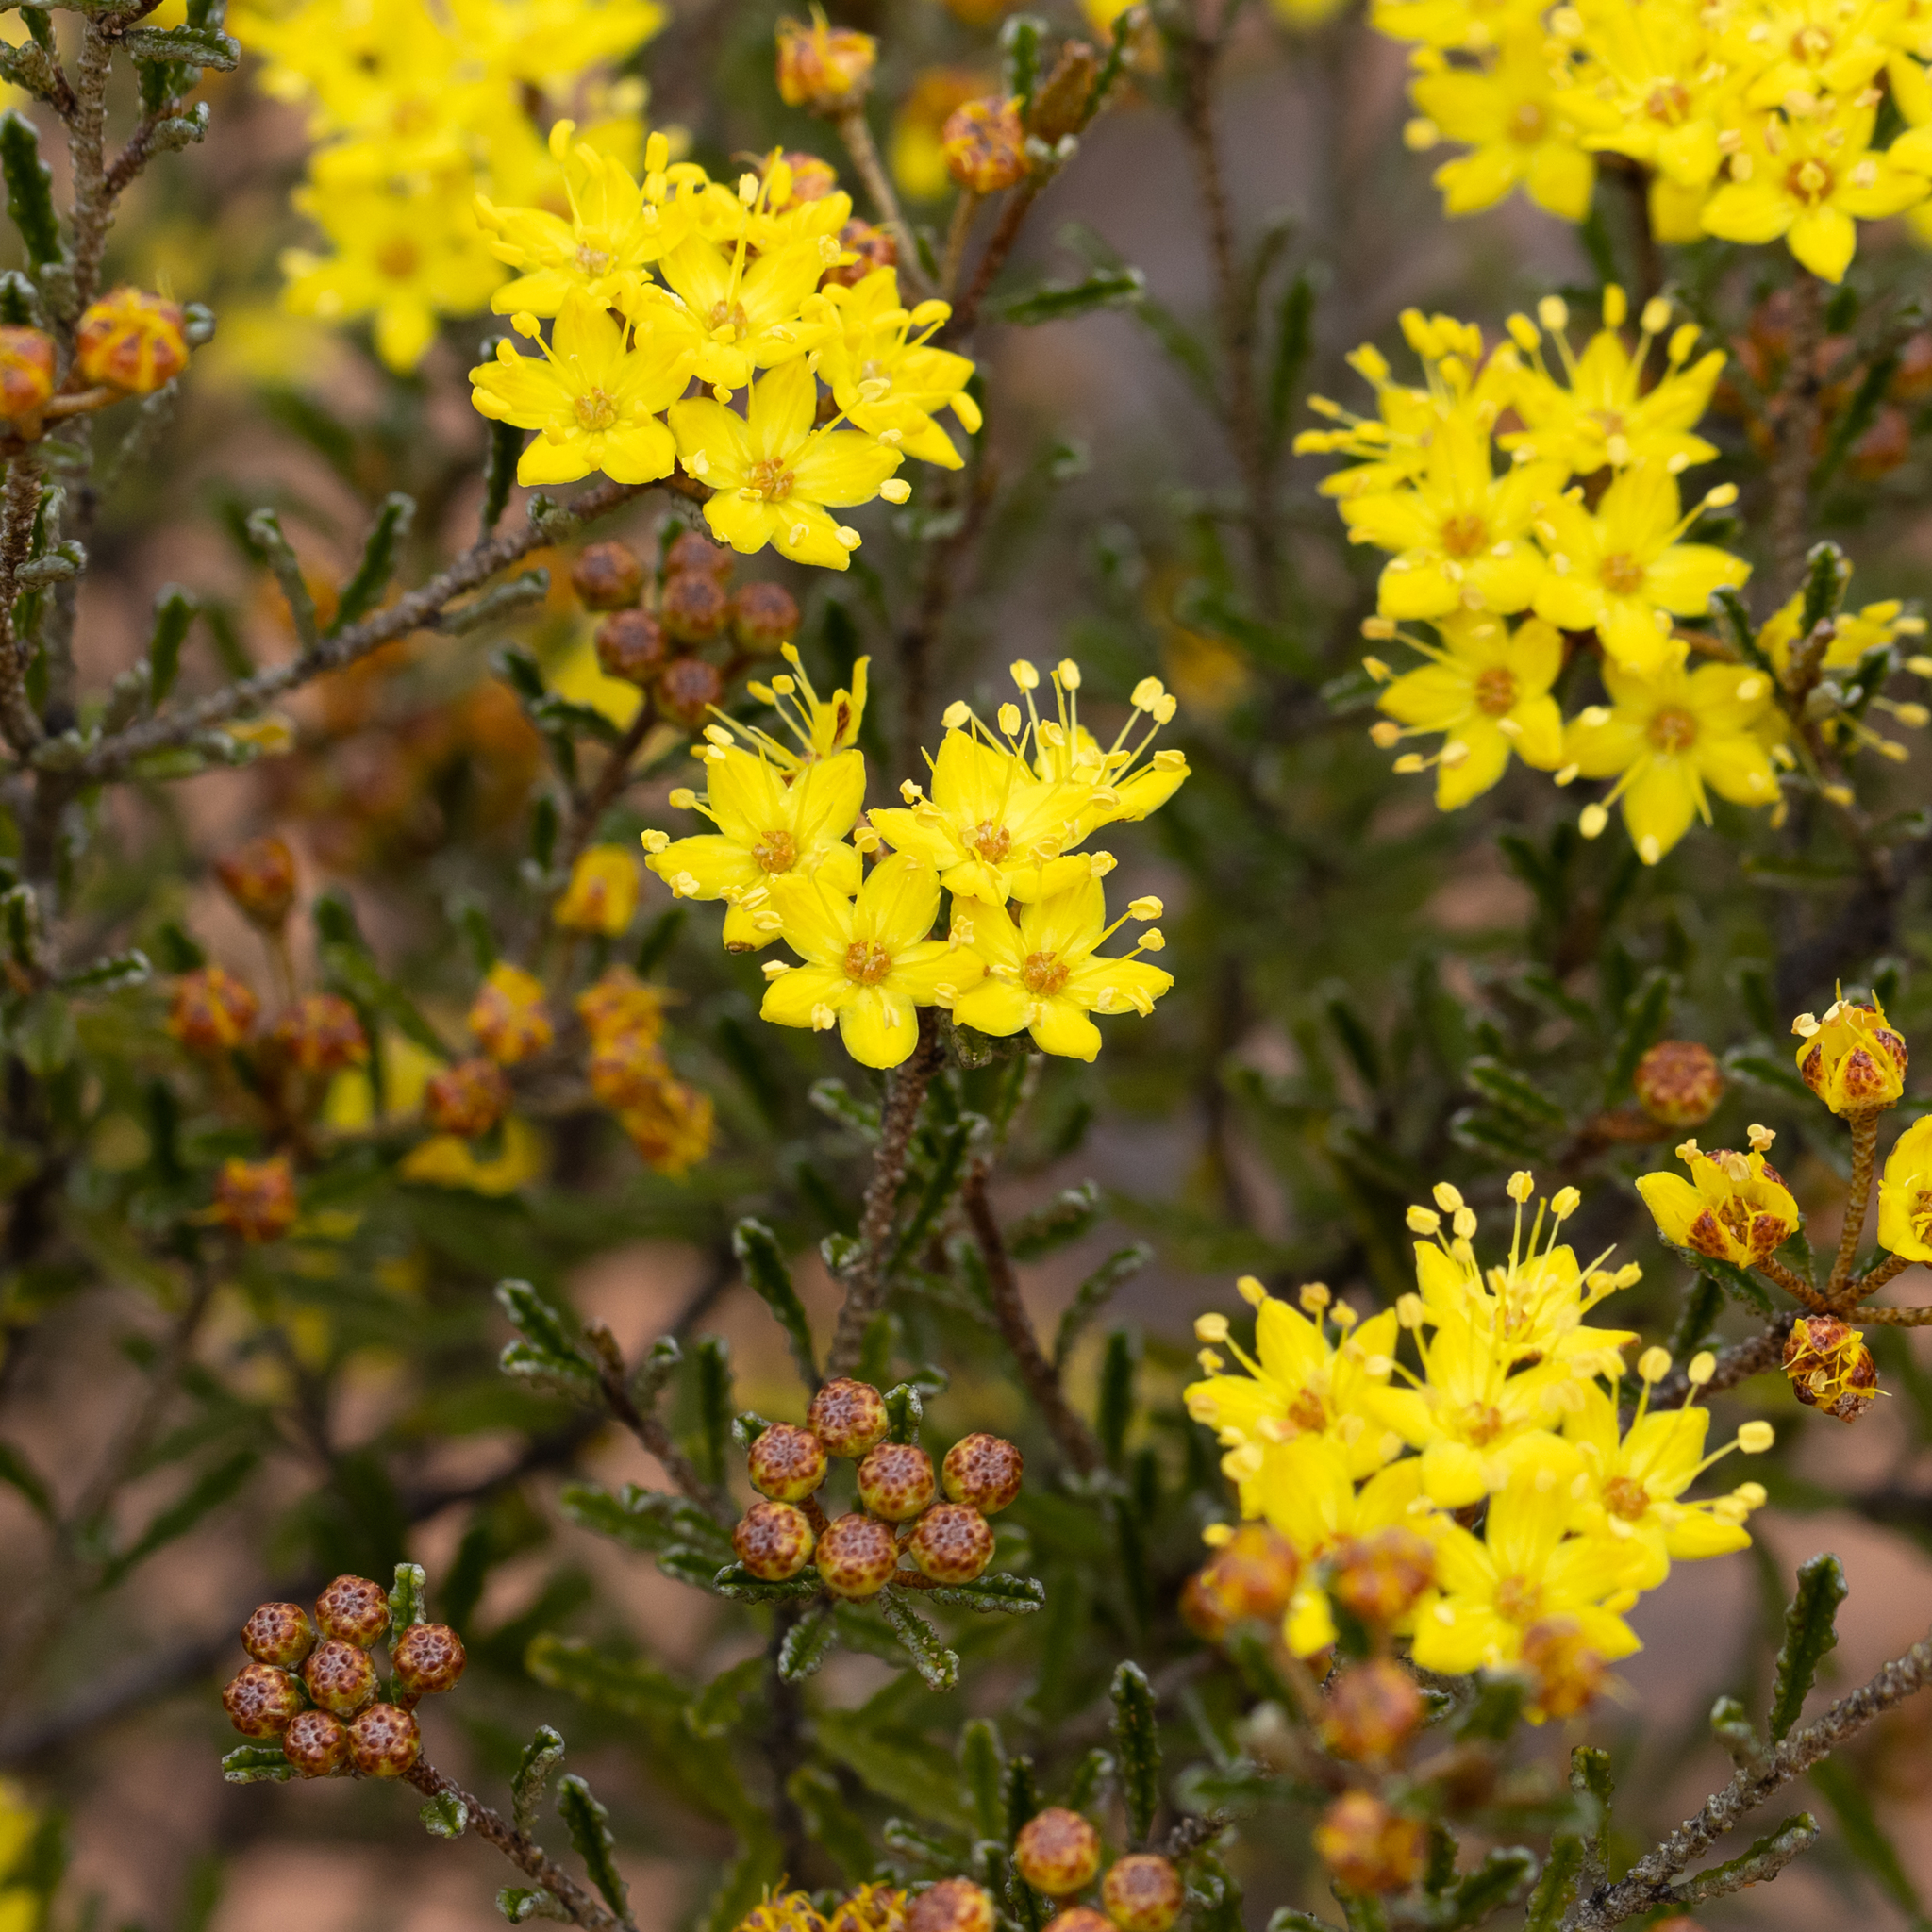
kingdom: Plantae
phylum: Tracheophyta
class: Magnoliopsida
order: Sapindales
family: Rutaceae
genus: Phebalium
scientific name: Phebalium bullatum
